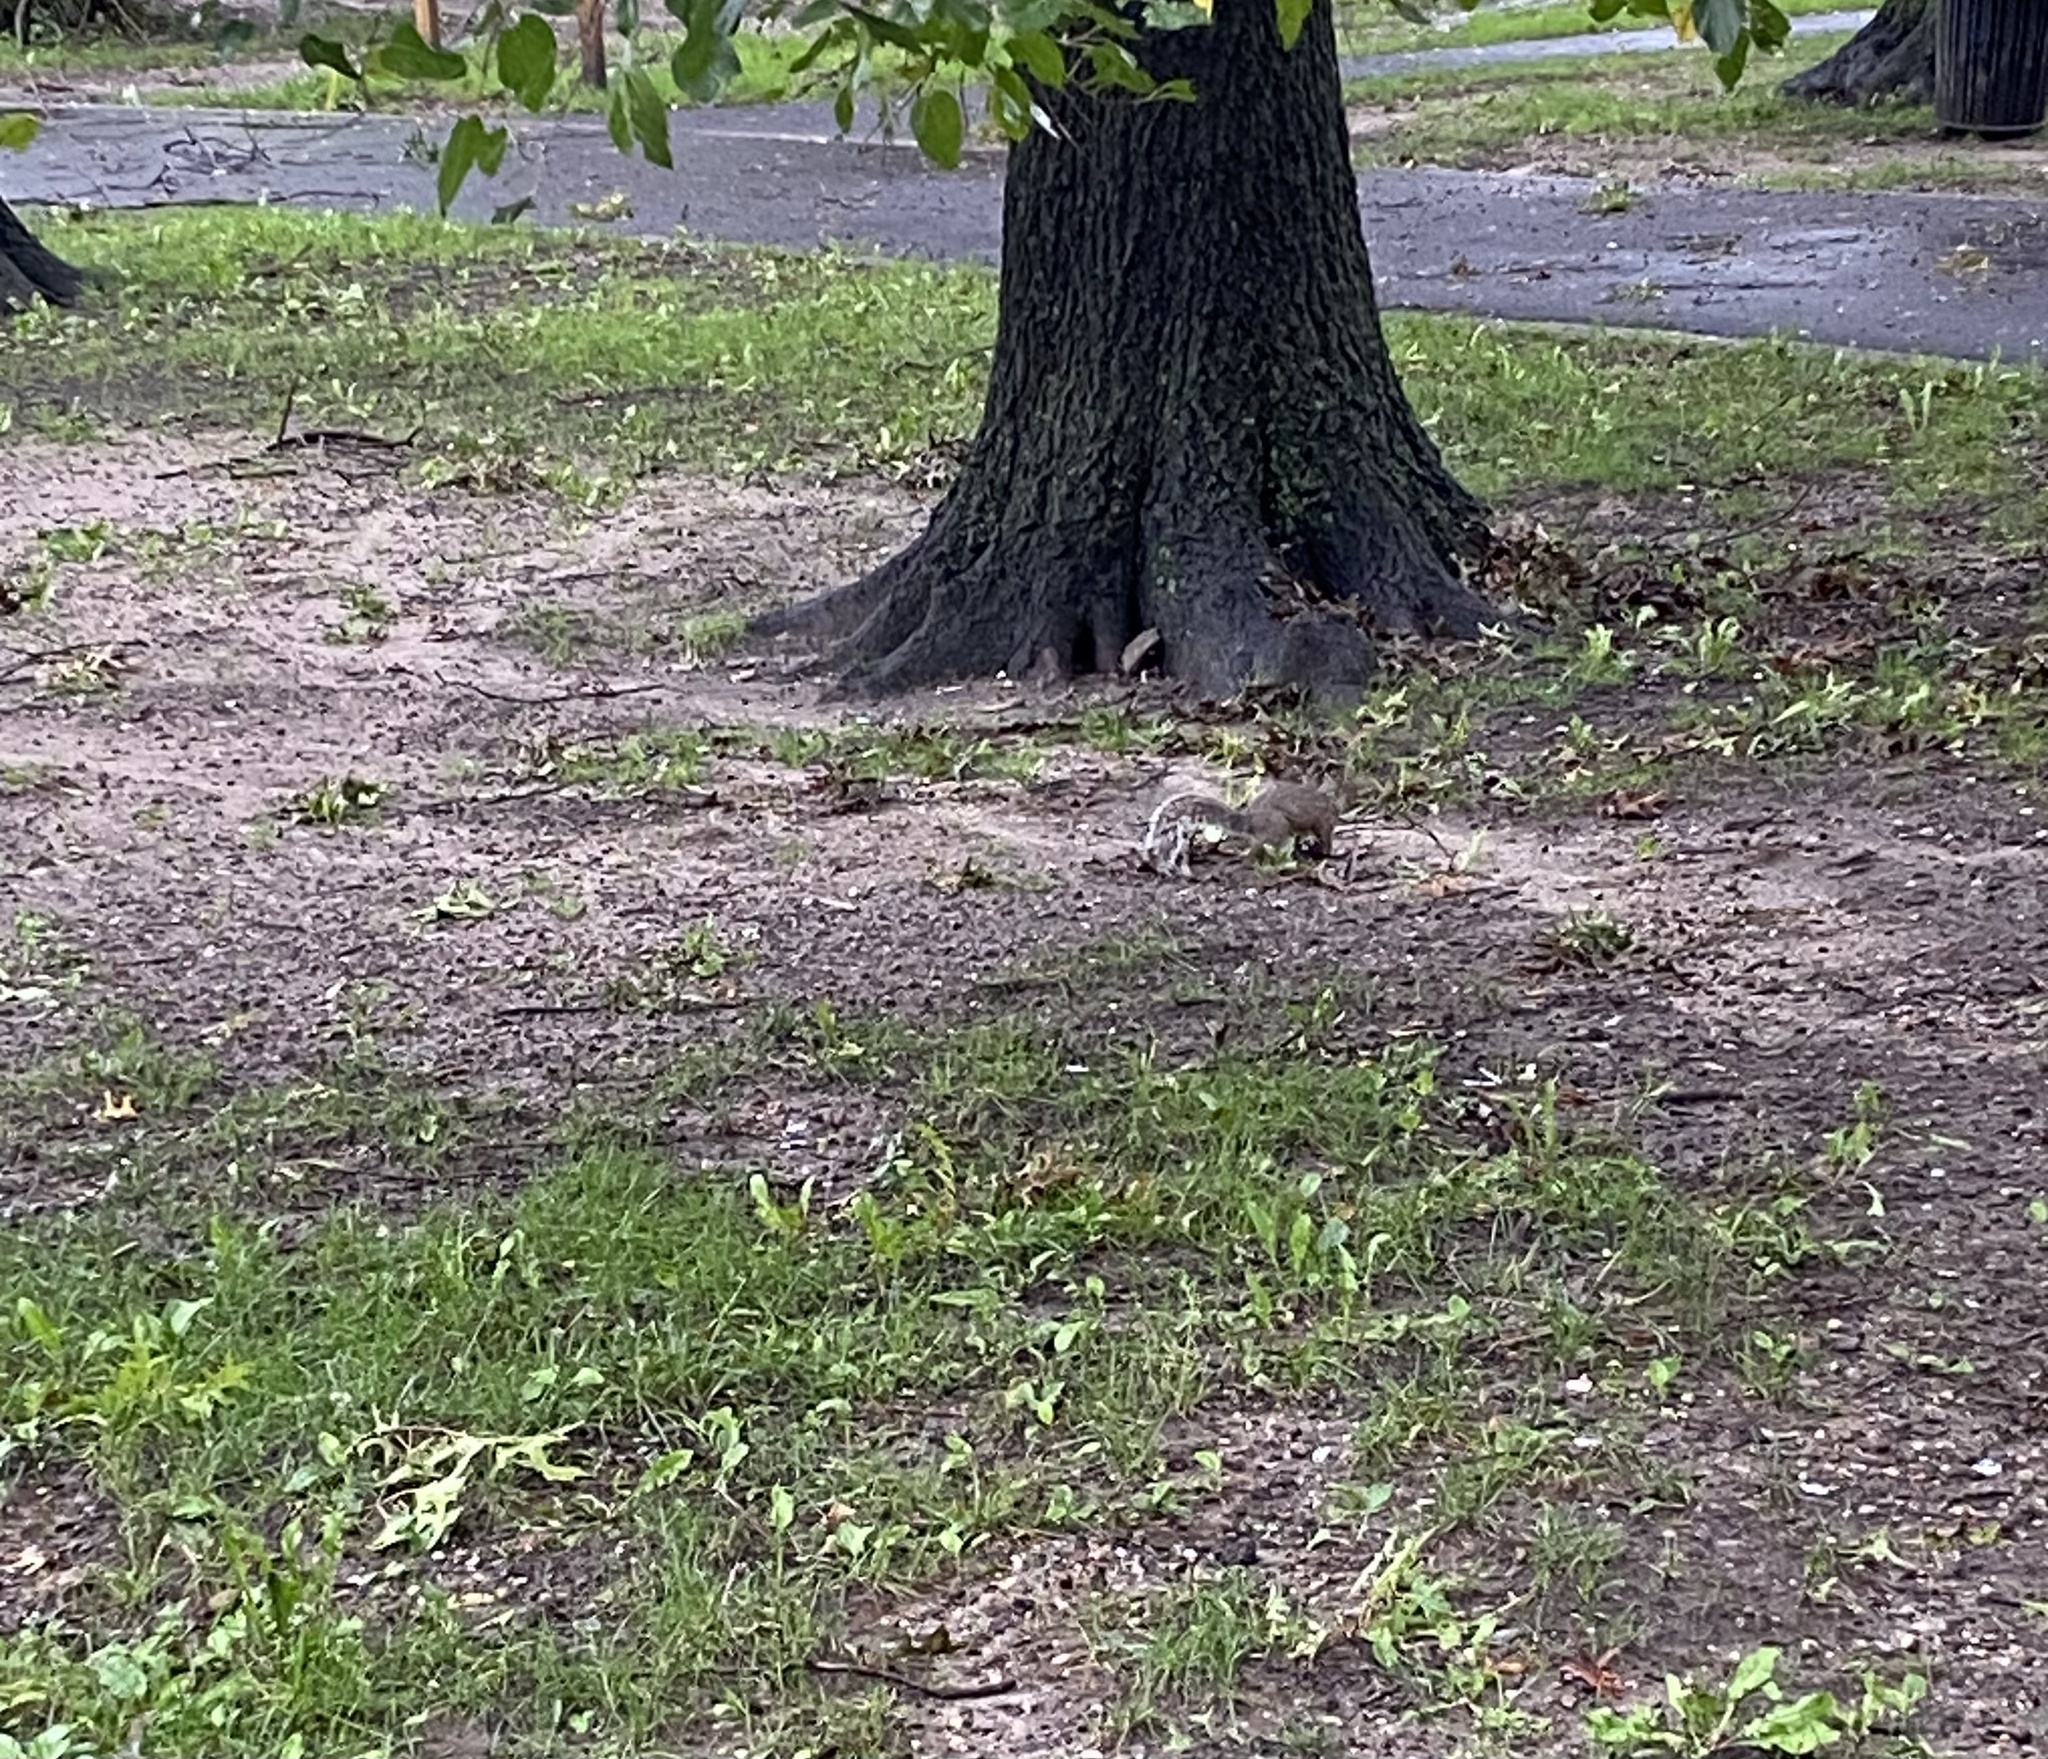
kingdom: Animalia
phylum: Chordata
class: Mammalia
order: Rodentia
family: Sciuridae
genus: Sciurus
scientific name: Sciurus carolinensis
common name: Eastern gray squirrel
